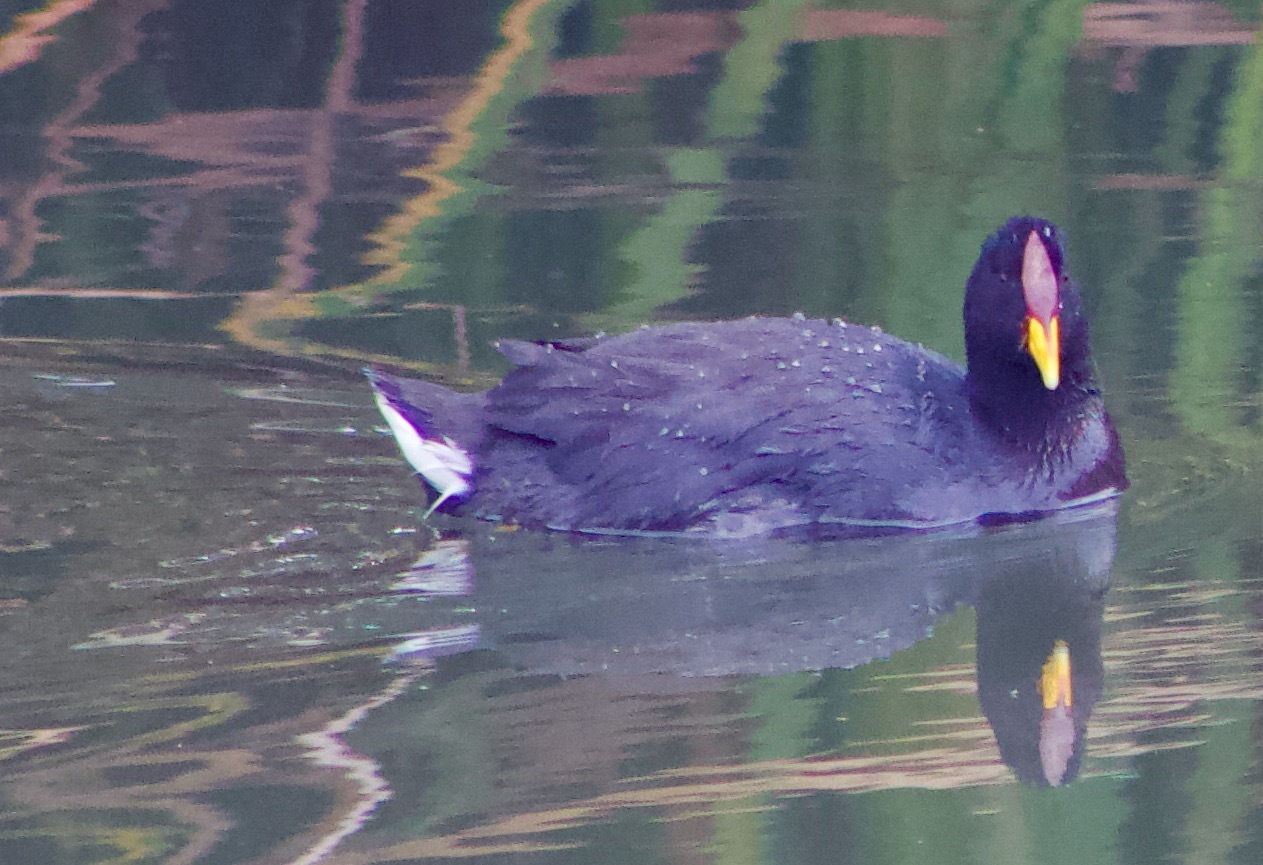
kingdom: Animalia
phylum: Chordata
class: Aves
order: Gruiformes
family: Rallidae
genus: Fulica
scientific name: Fulica rufifrons
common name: Red-fronted coot
